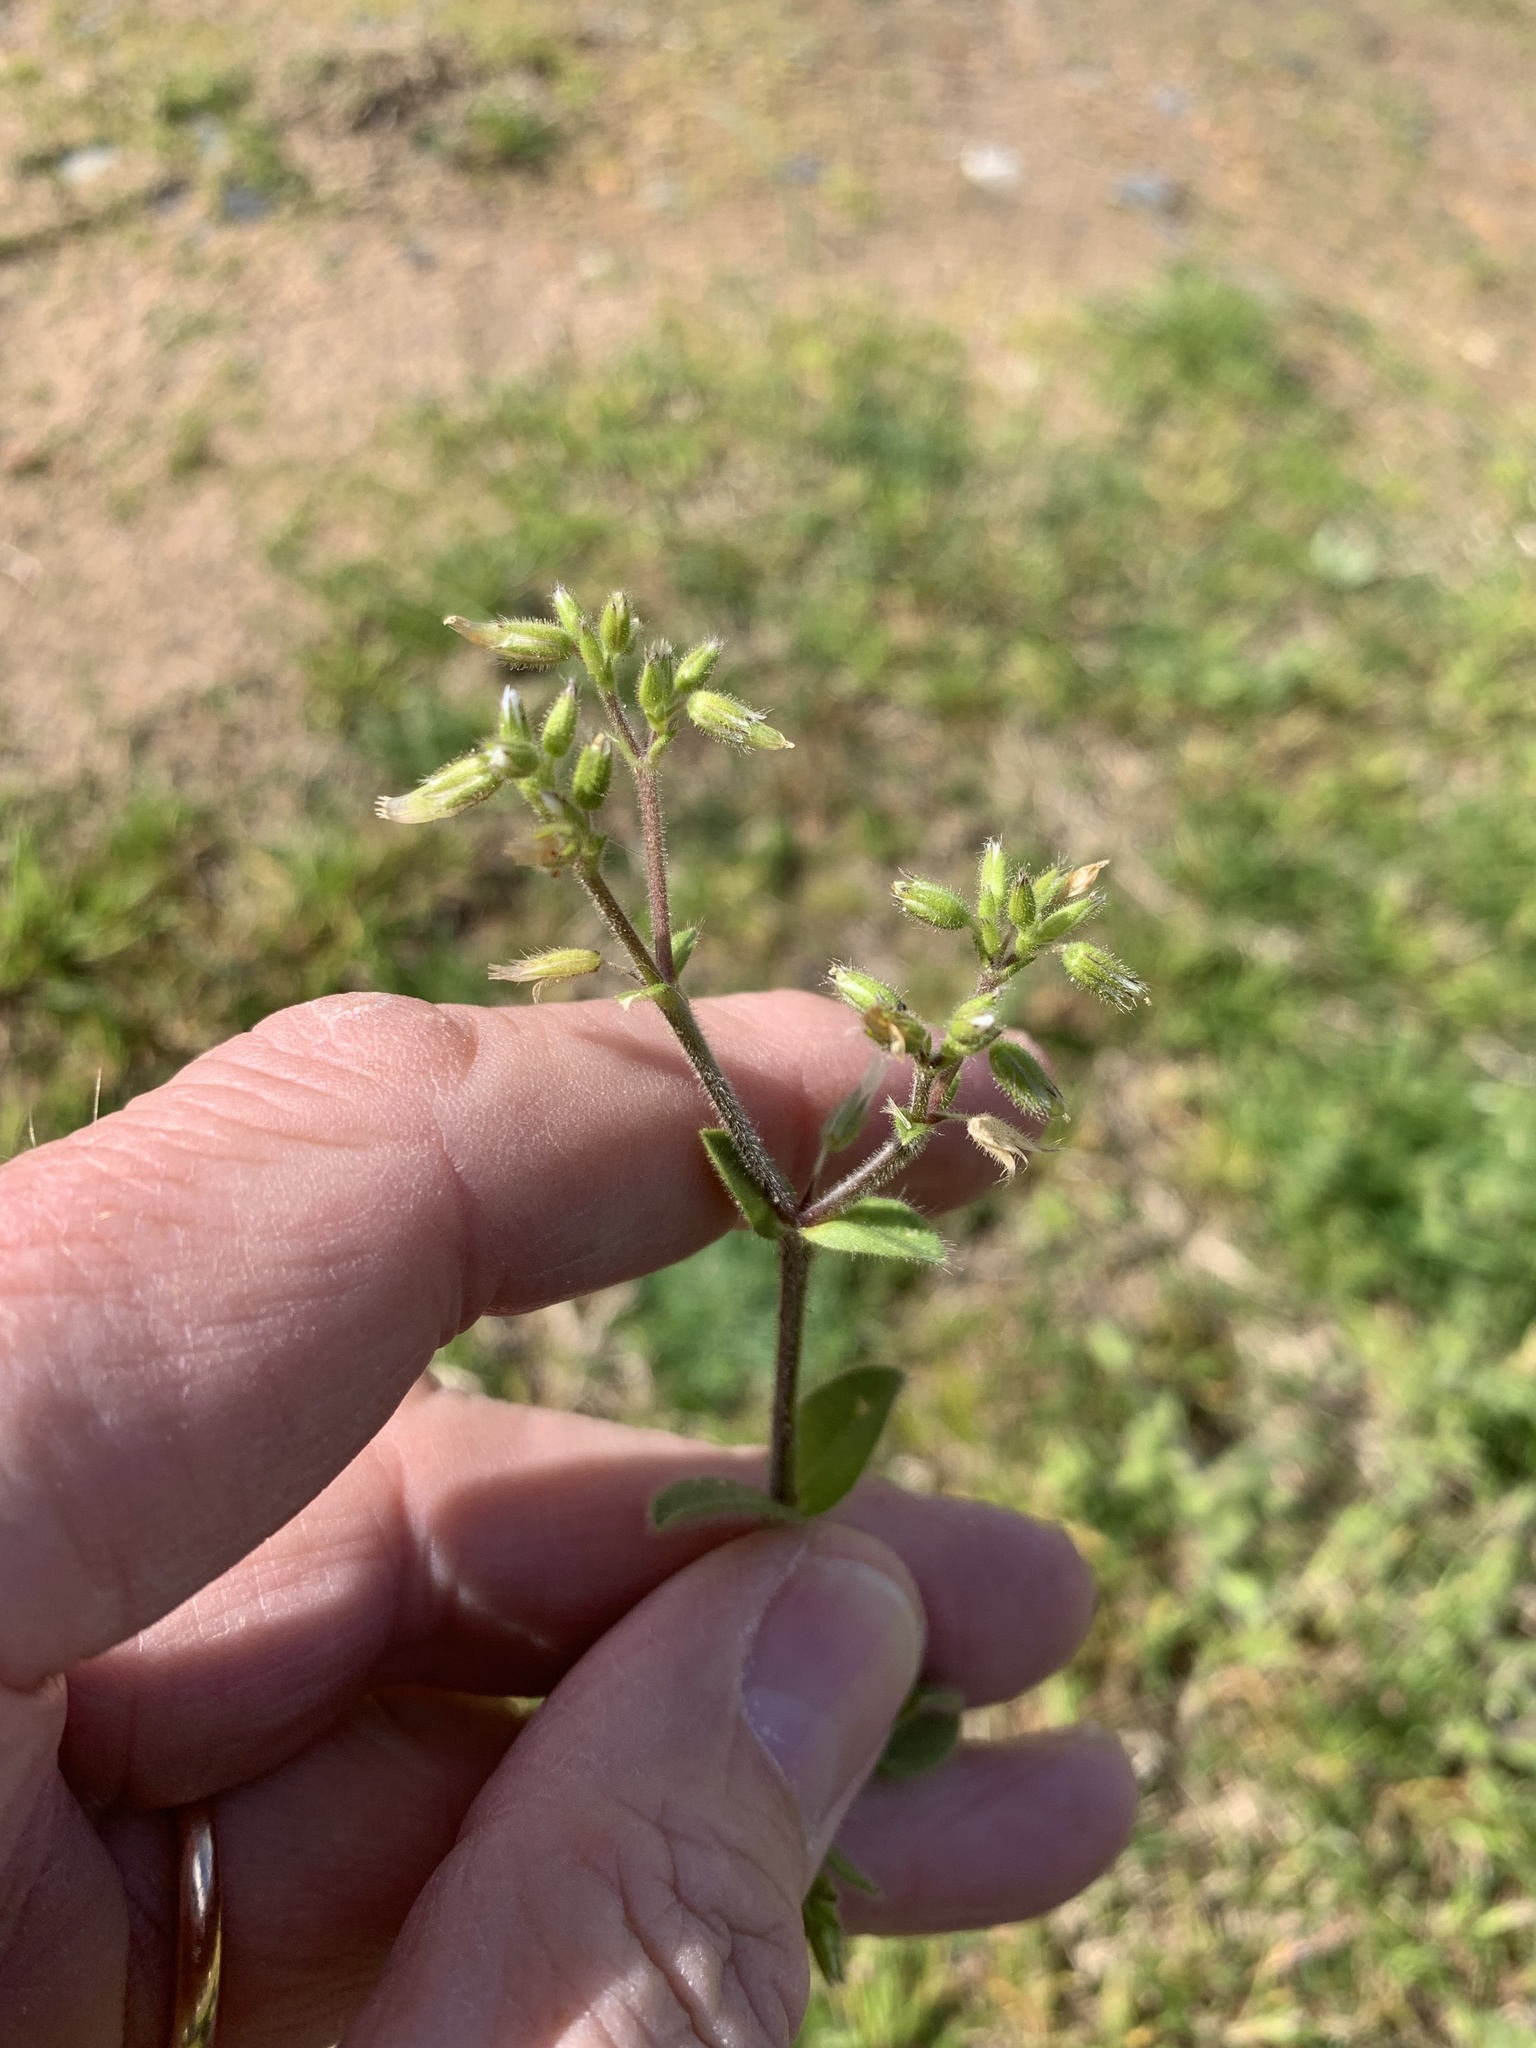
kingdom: Plantae
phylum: Tracheophyta
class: Magnoliopsida
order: Caryophyllales
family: Caryophyllaceae
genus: Cerastium
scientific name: Cerastium glomeratum
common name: Sticky chickweed
